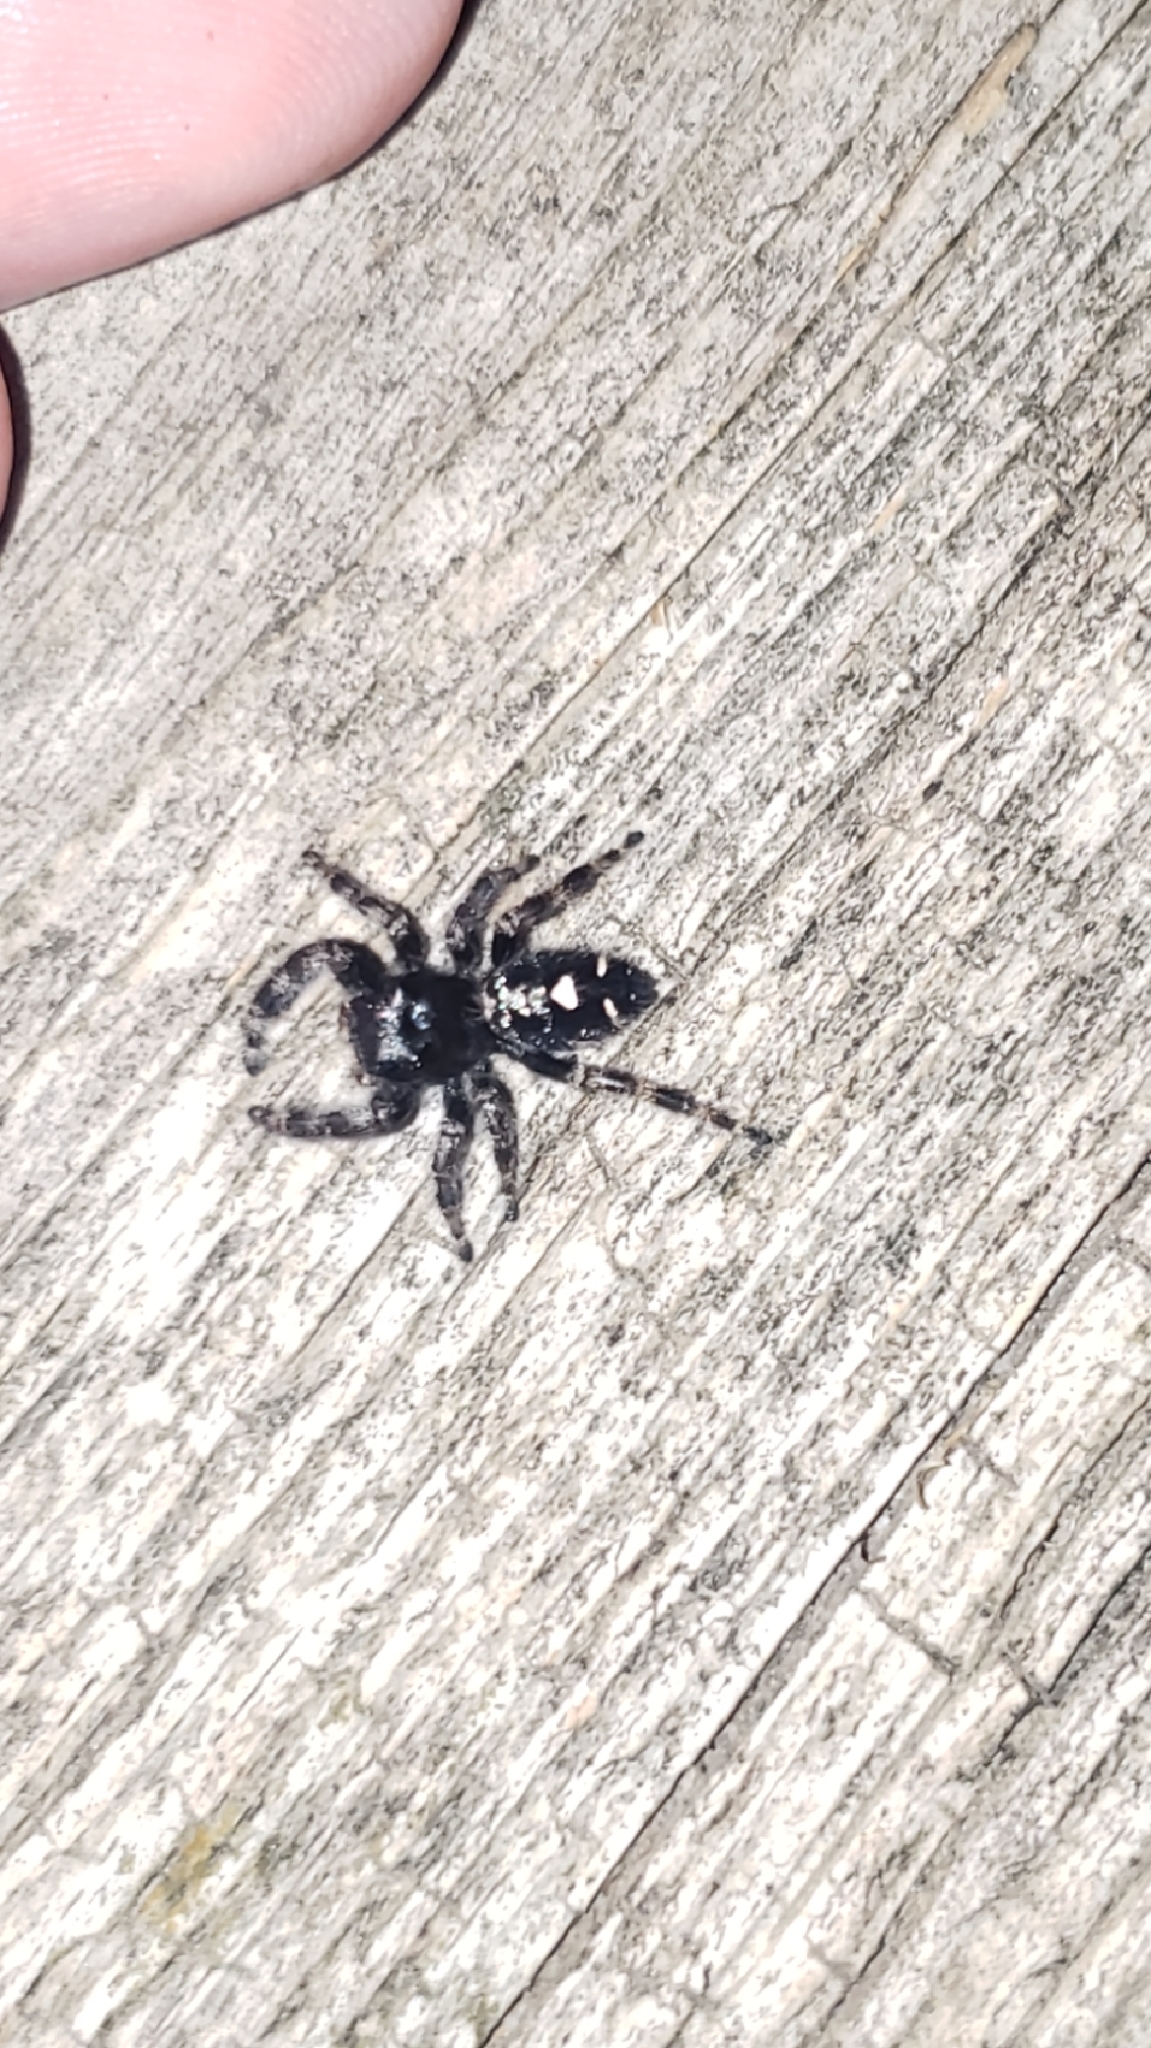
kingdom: Animalia
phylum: Arthropoda
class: Arachnida
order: Araneae
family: Salticidae
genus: Phidippus
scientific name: Phidippus audax
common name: Bold jumper
